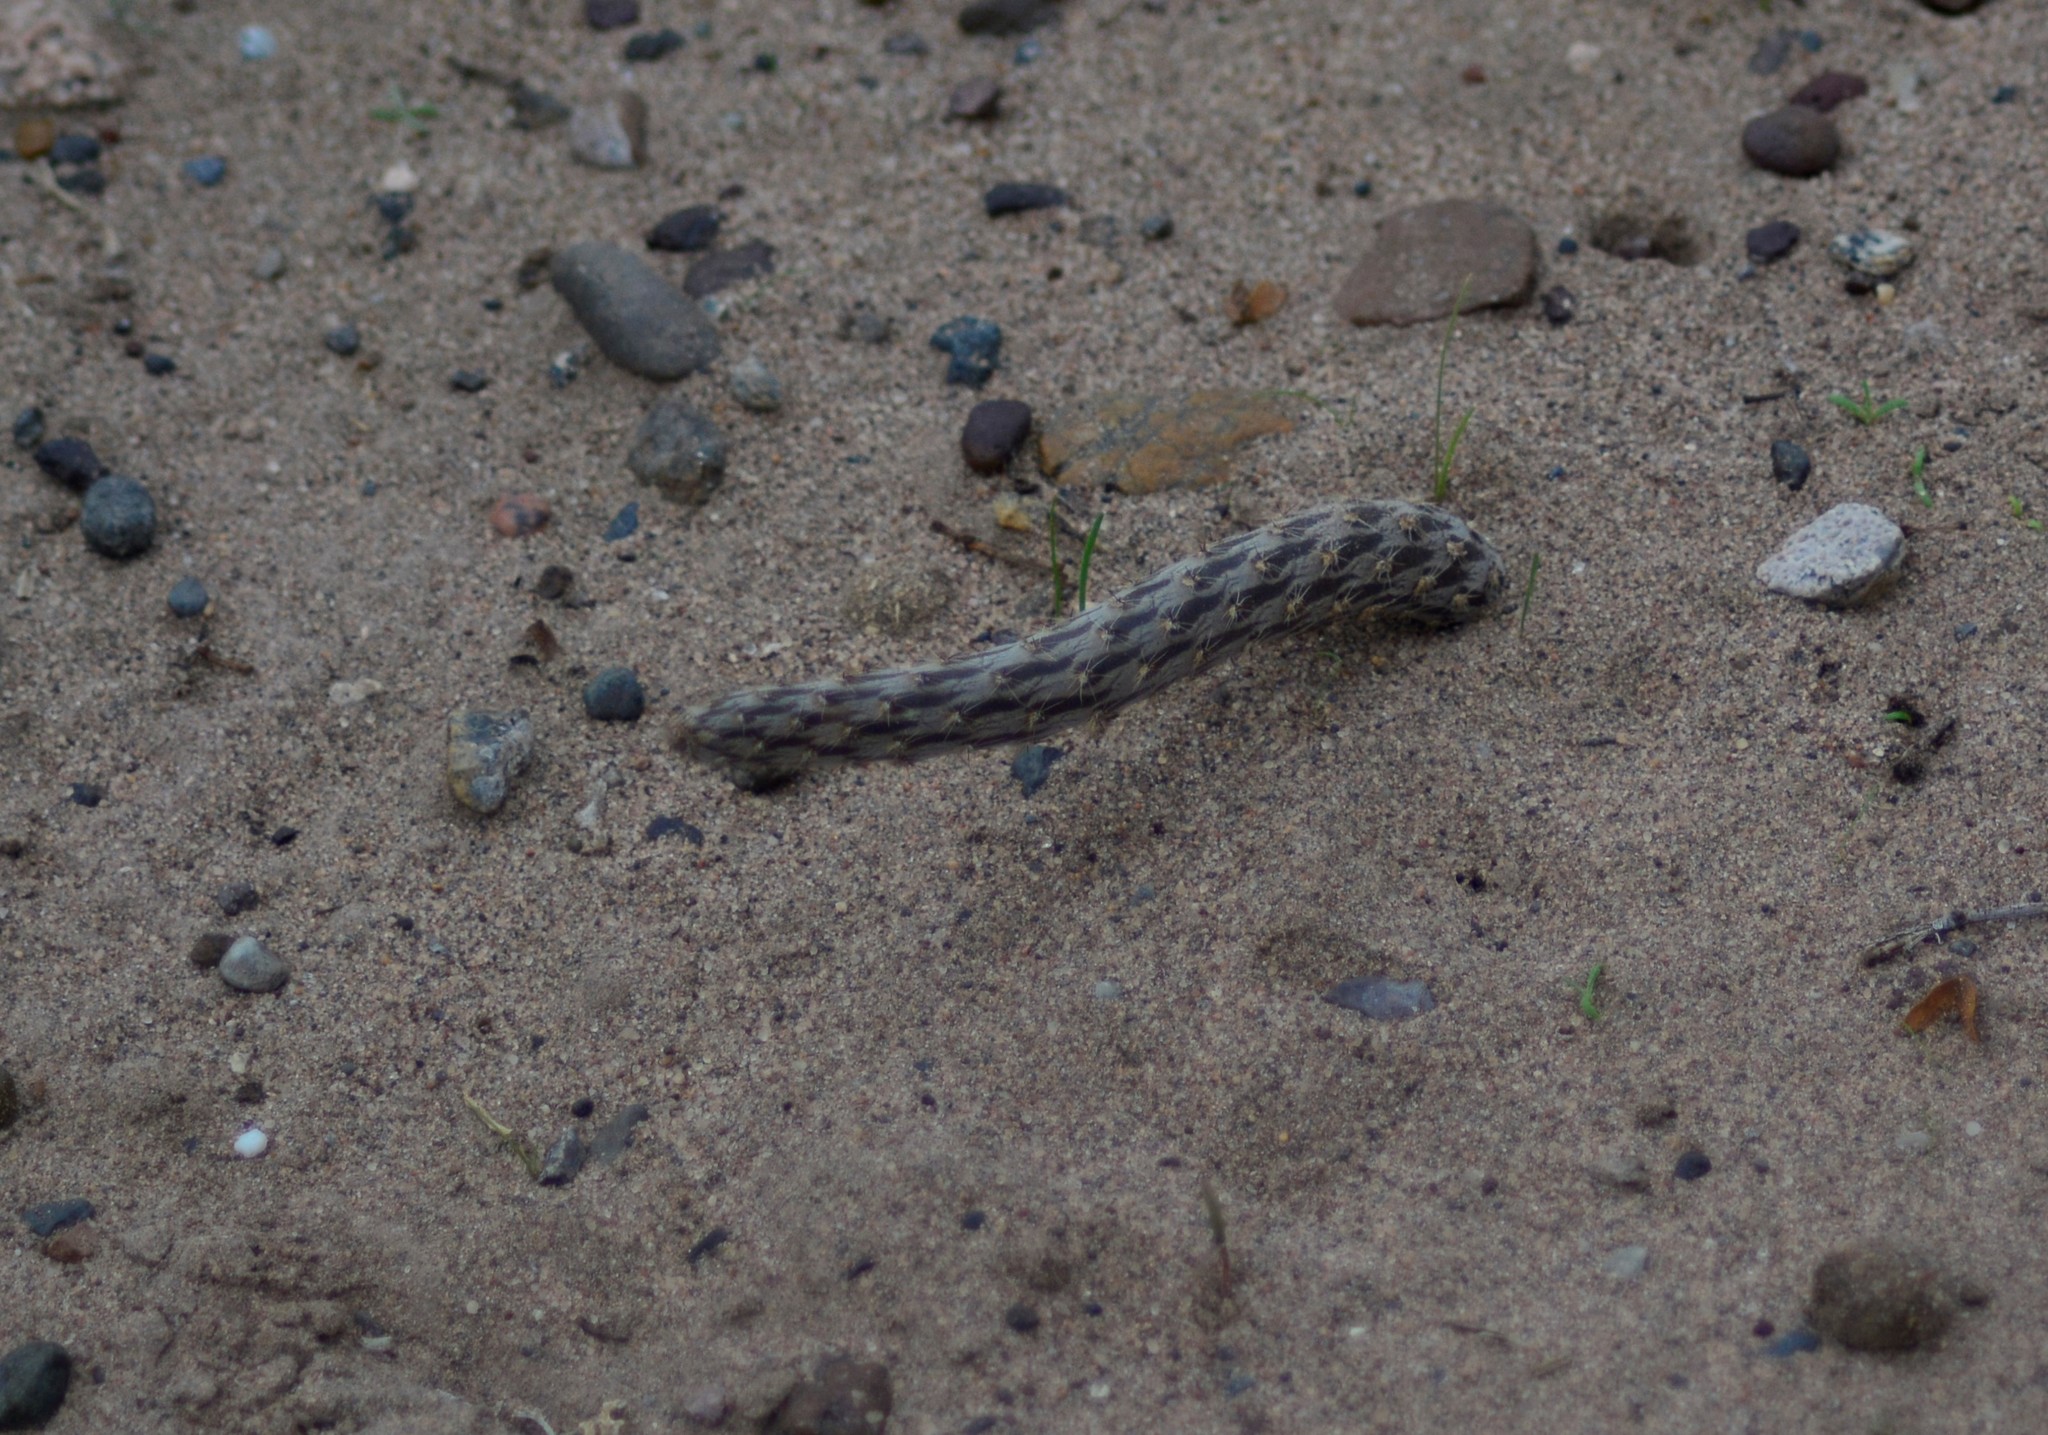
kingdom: Plantae
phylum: Tracheophyta
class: Magnoliopsida
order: Caryophyllales
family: Cactaceae
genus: Pterocactus
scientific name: Pterocactus tuberosus
